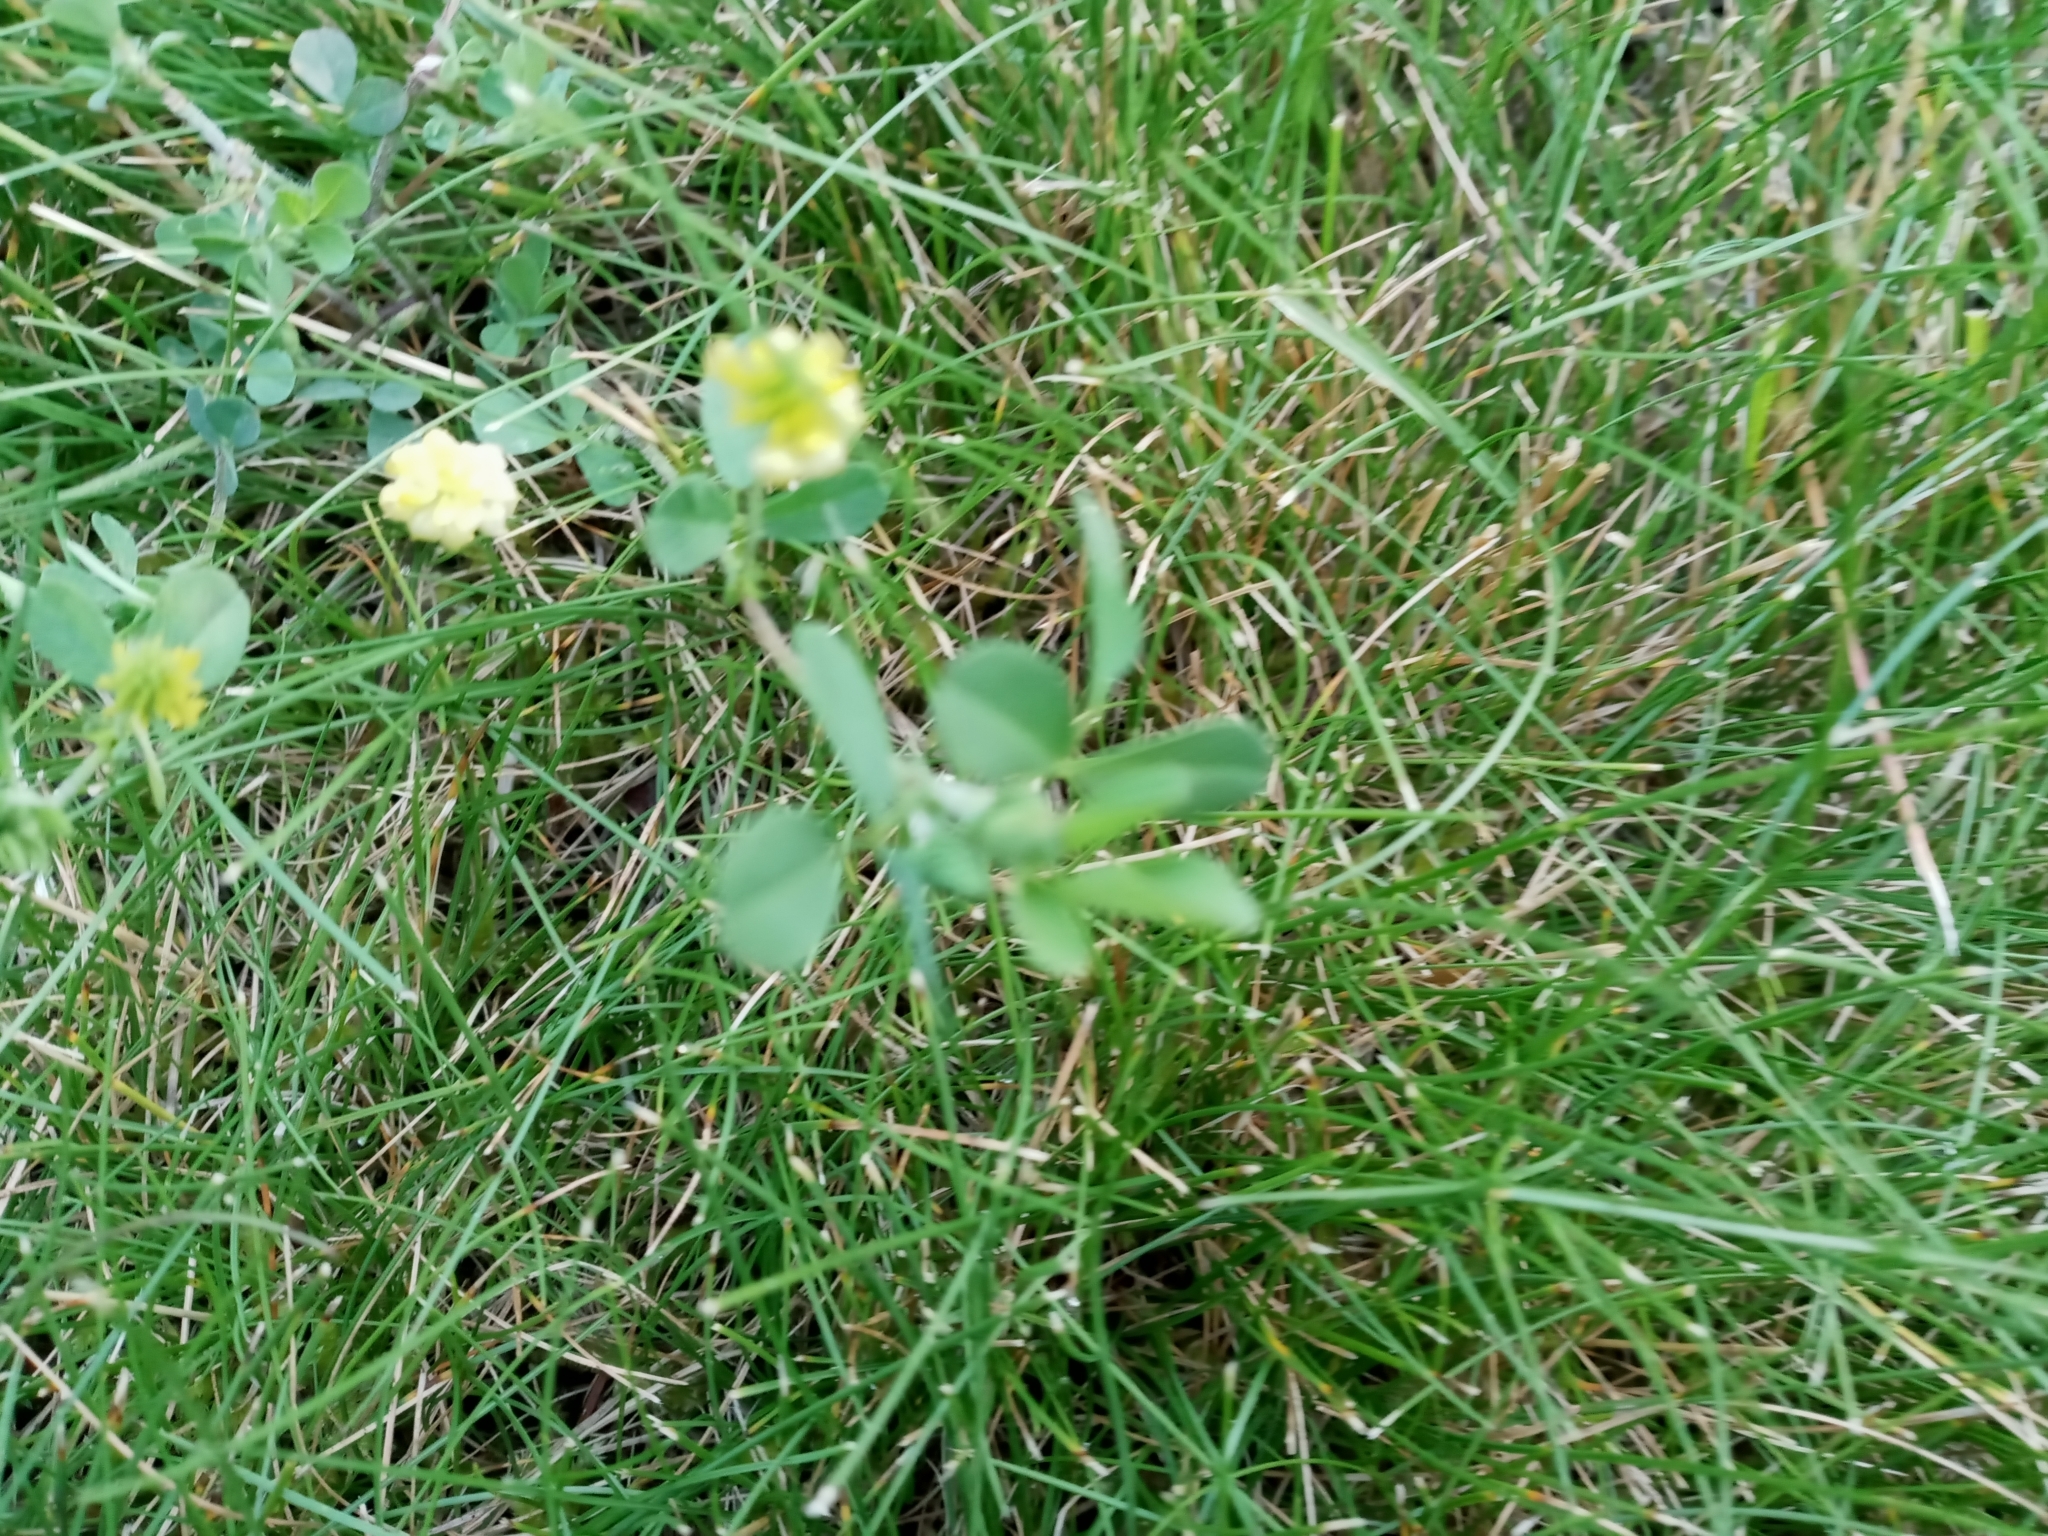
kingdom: Plantae
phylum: Tracheophyta
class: Magnoliopsida
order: Fabales
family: Fabaceae
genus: Trifolium
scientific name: Trifolium campestre
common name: Field clover
